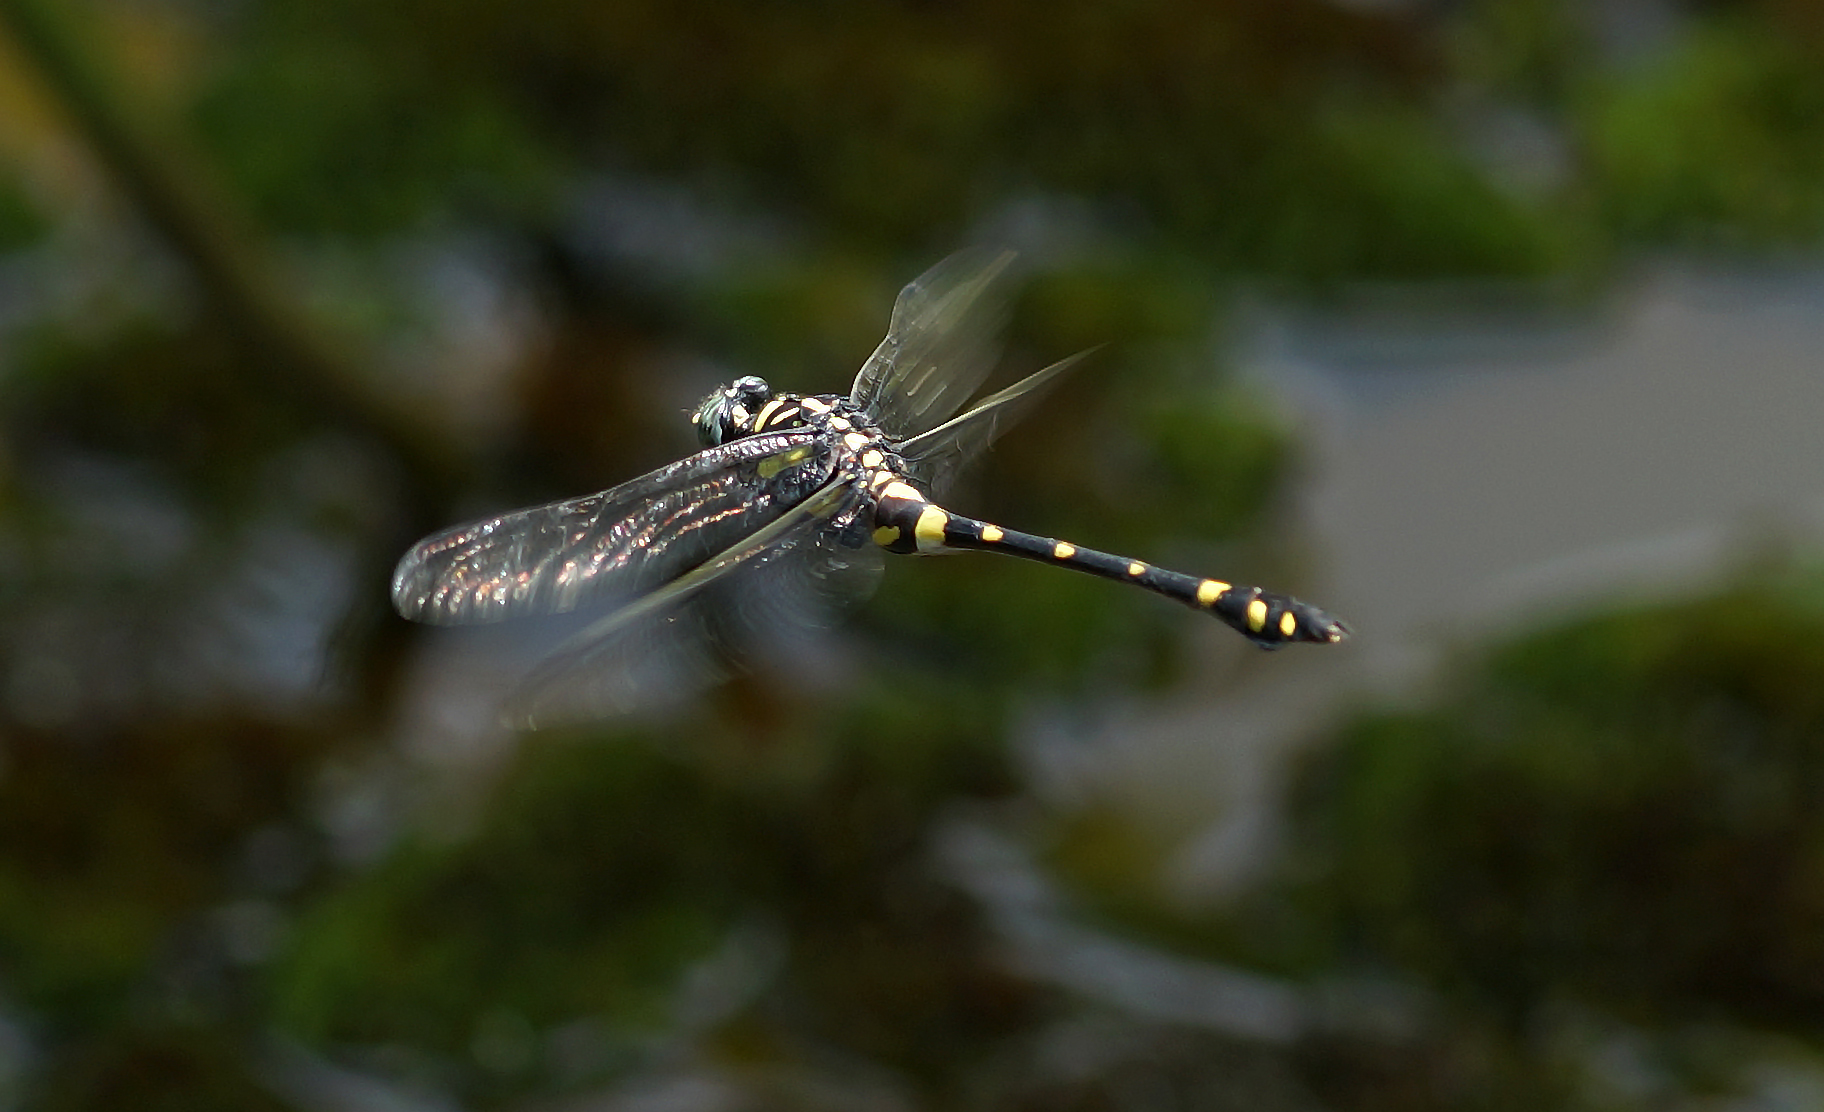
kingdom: Animalia
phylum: Arthropoda
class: Insecta
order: Odonata
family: Gomphidae
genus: Ictinogomphus
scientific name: Ictinogomphus decoratus
